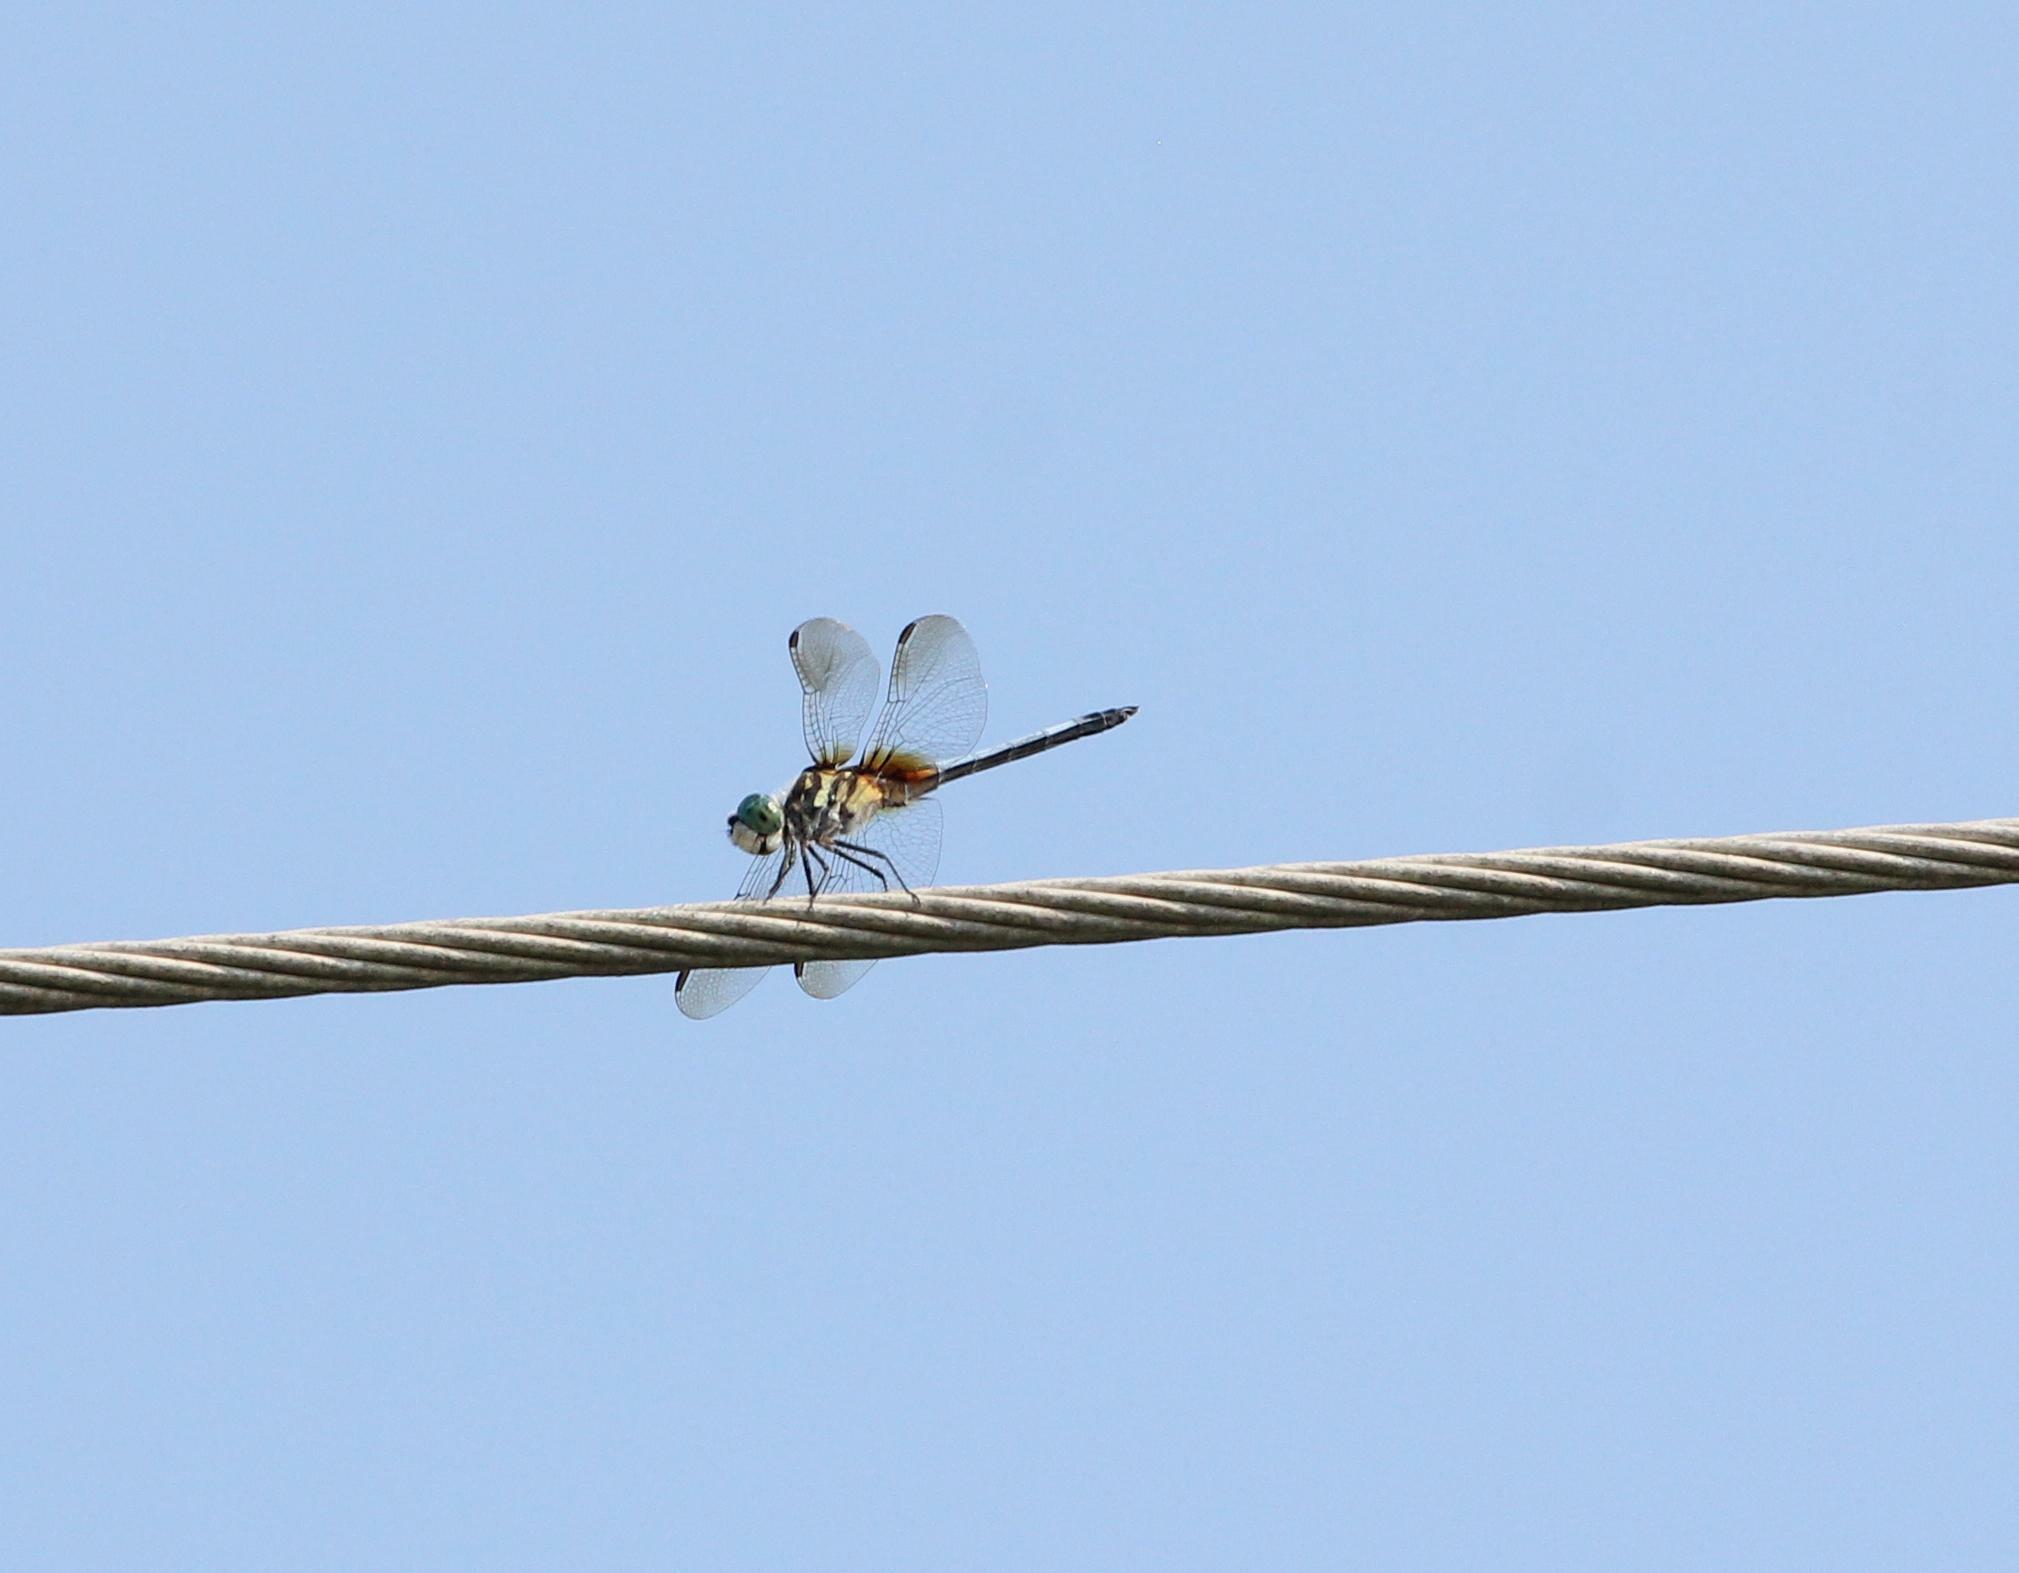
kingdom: Animalia
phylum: Arthropoda
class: Insecta
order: Odonata
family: Libellulidae
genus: Pachydiplax
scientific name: Pachydiplax longipennis
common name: Blue dasher
